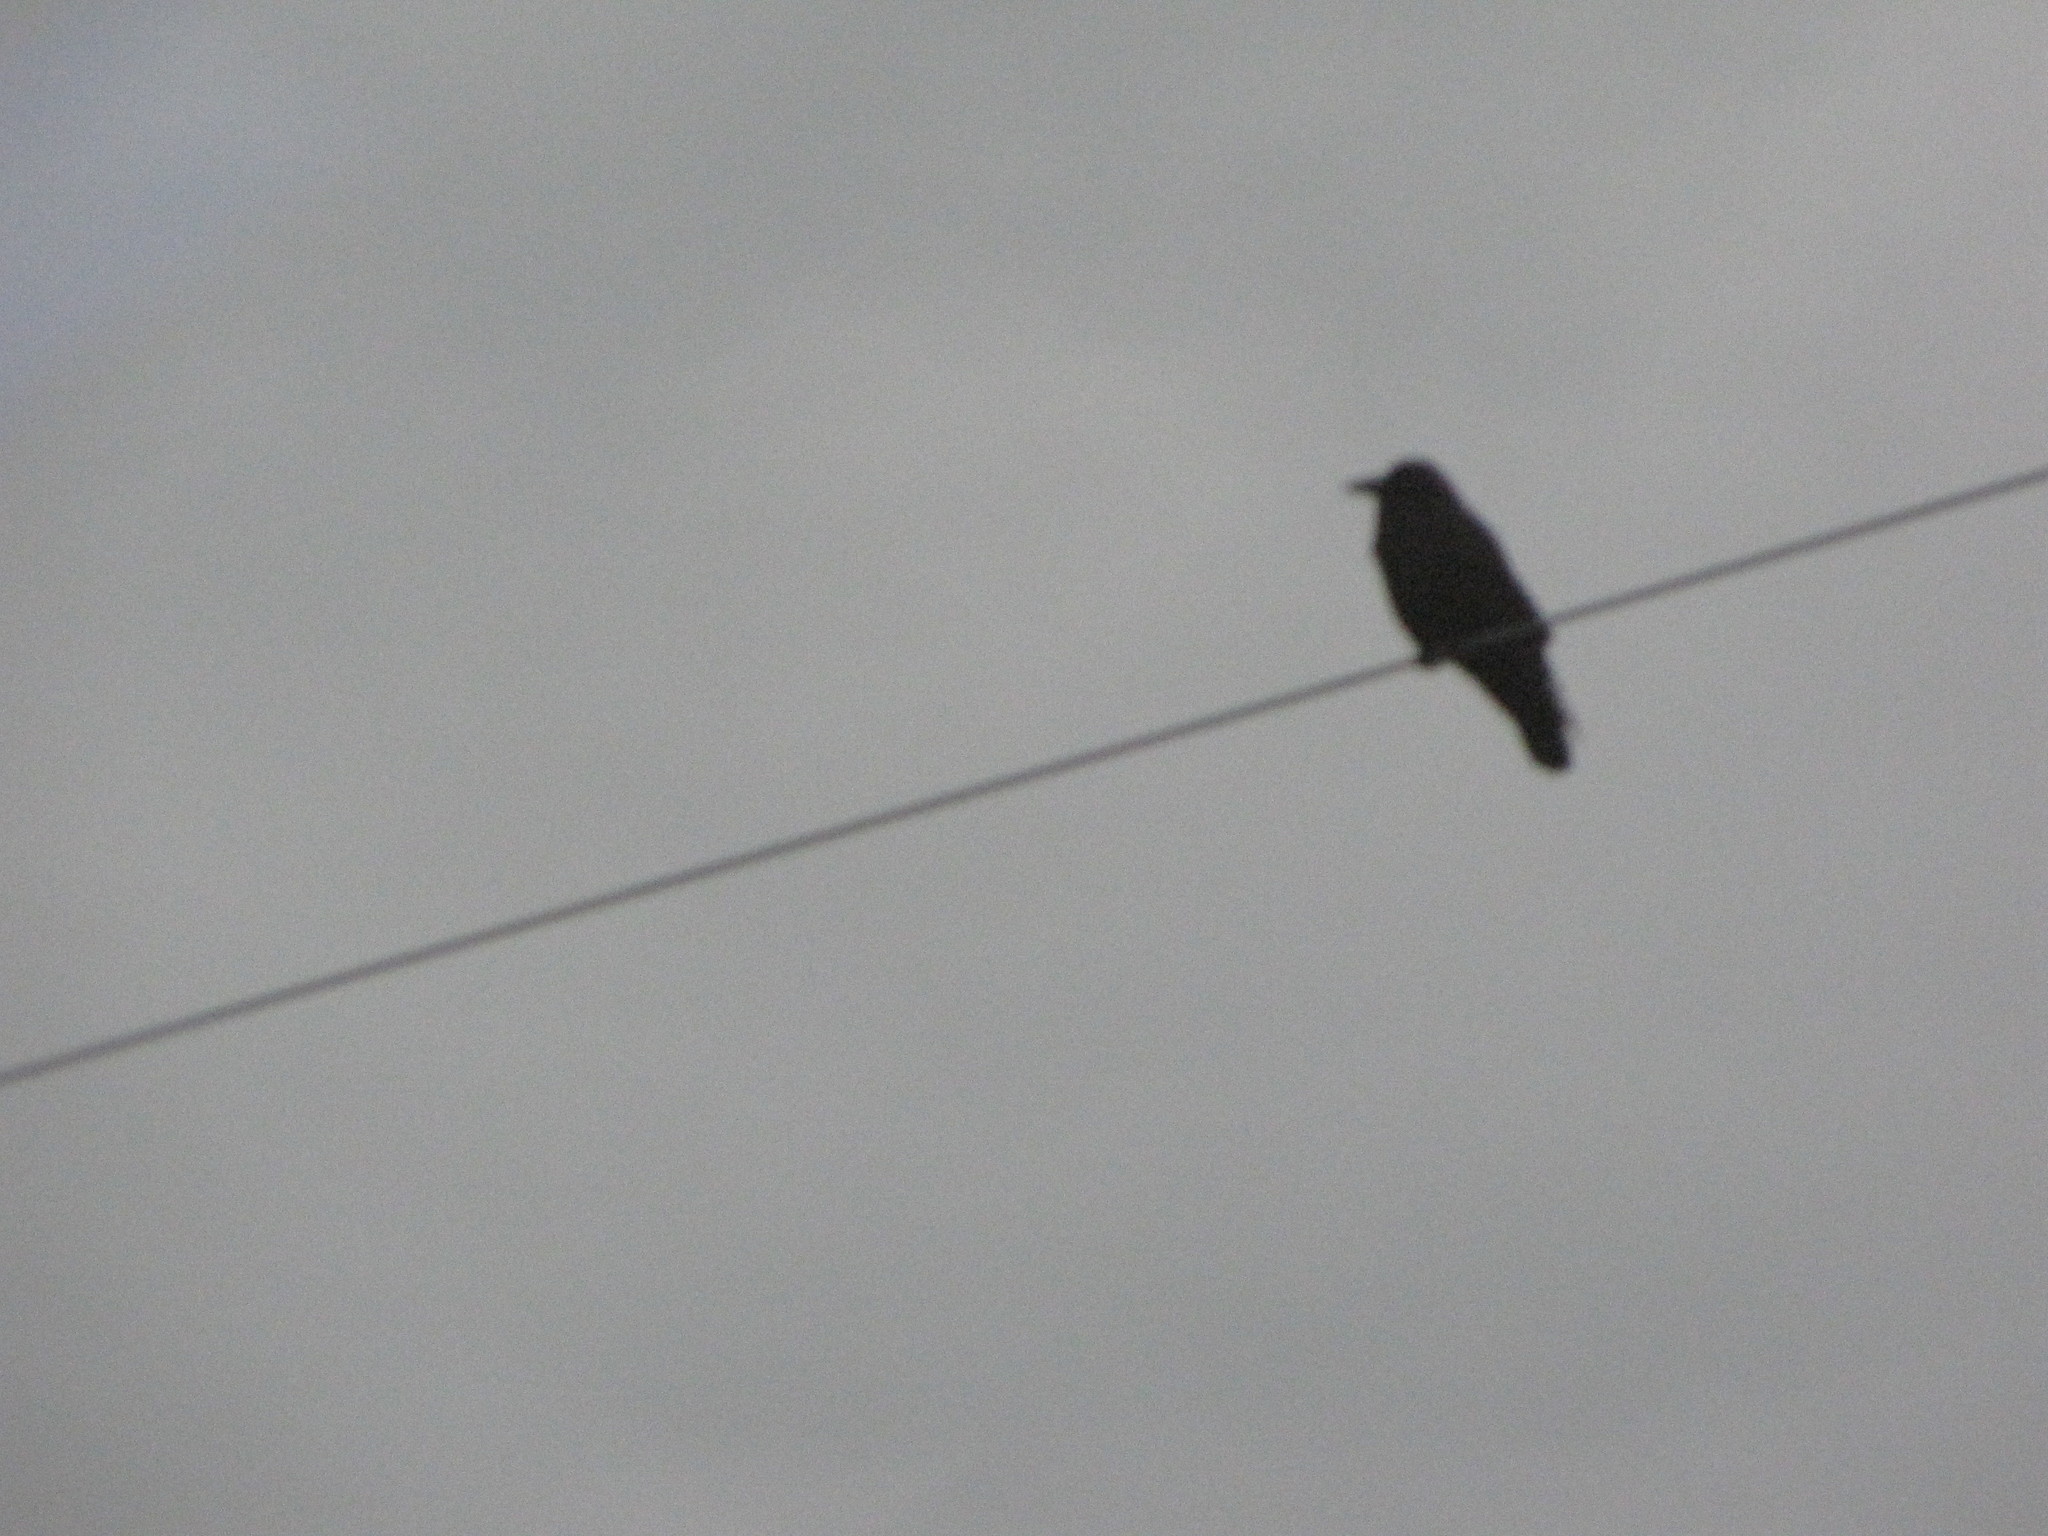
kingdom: Animalia
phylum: Chordata
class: Aves
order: Passeriformes
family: Corvidae
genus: Corvus
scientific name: Corvus brachyrhynchos
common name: American crow
